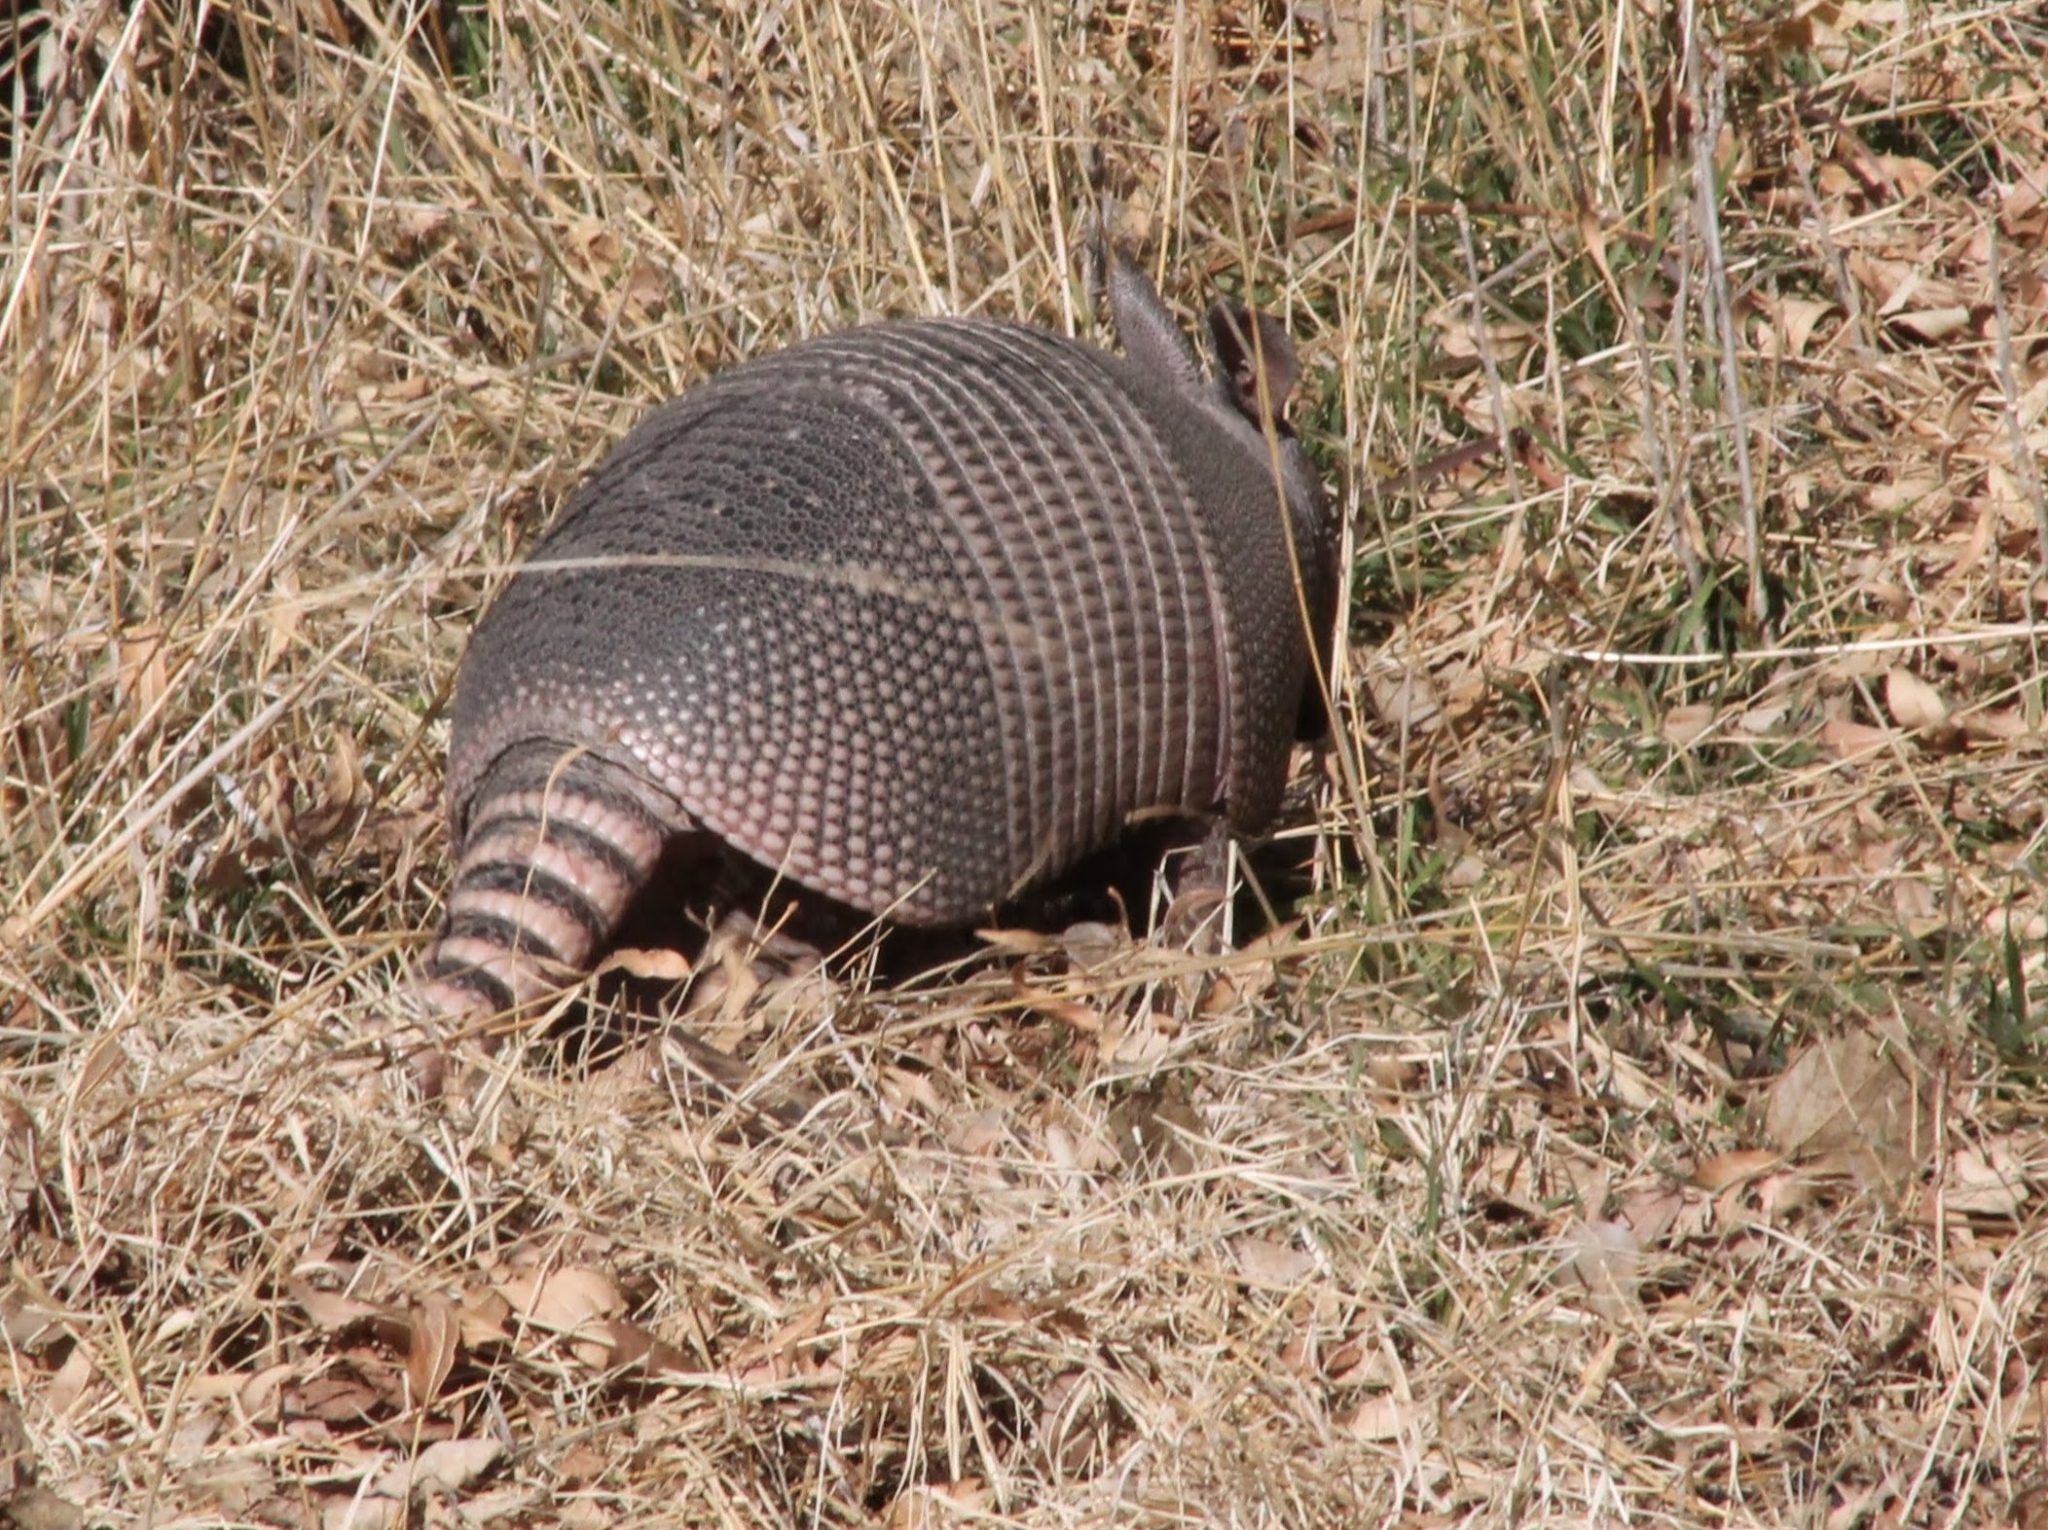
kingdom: Animalia
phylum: Chordata
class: Mammalia
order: Cingulata
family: Dasypodidae
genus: Dasypus
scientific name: Dasypus novemcinctus
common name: Nine-banded armadillo
